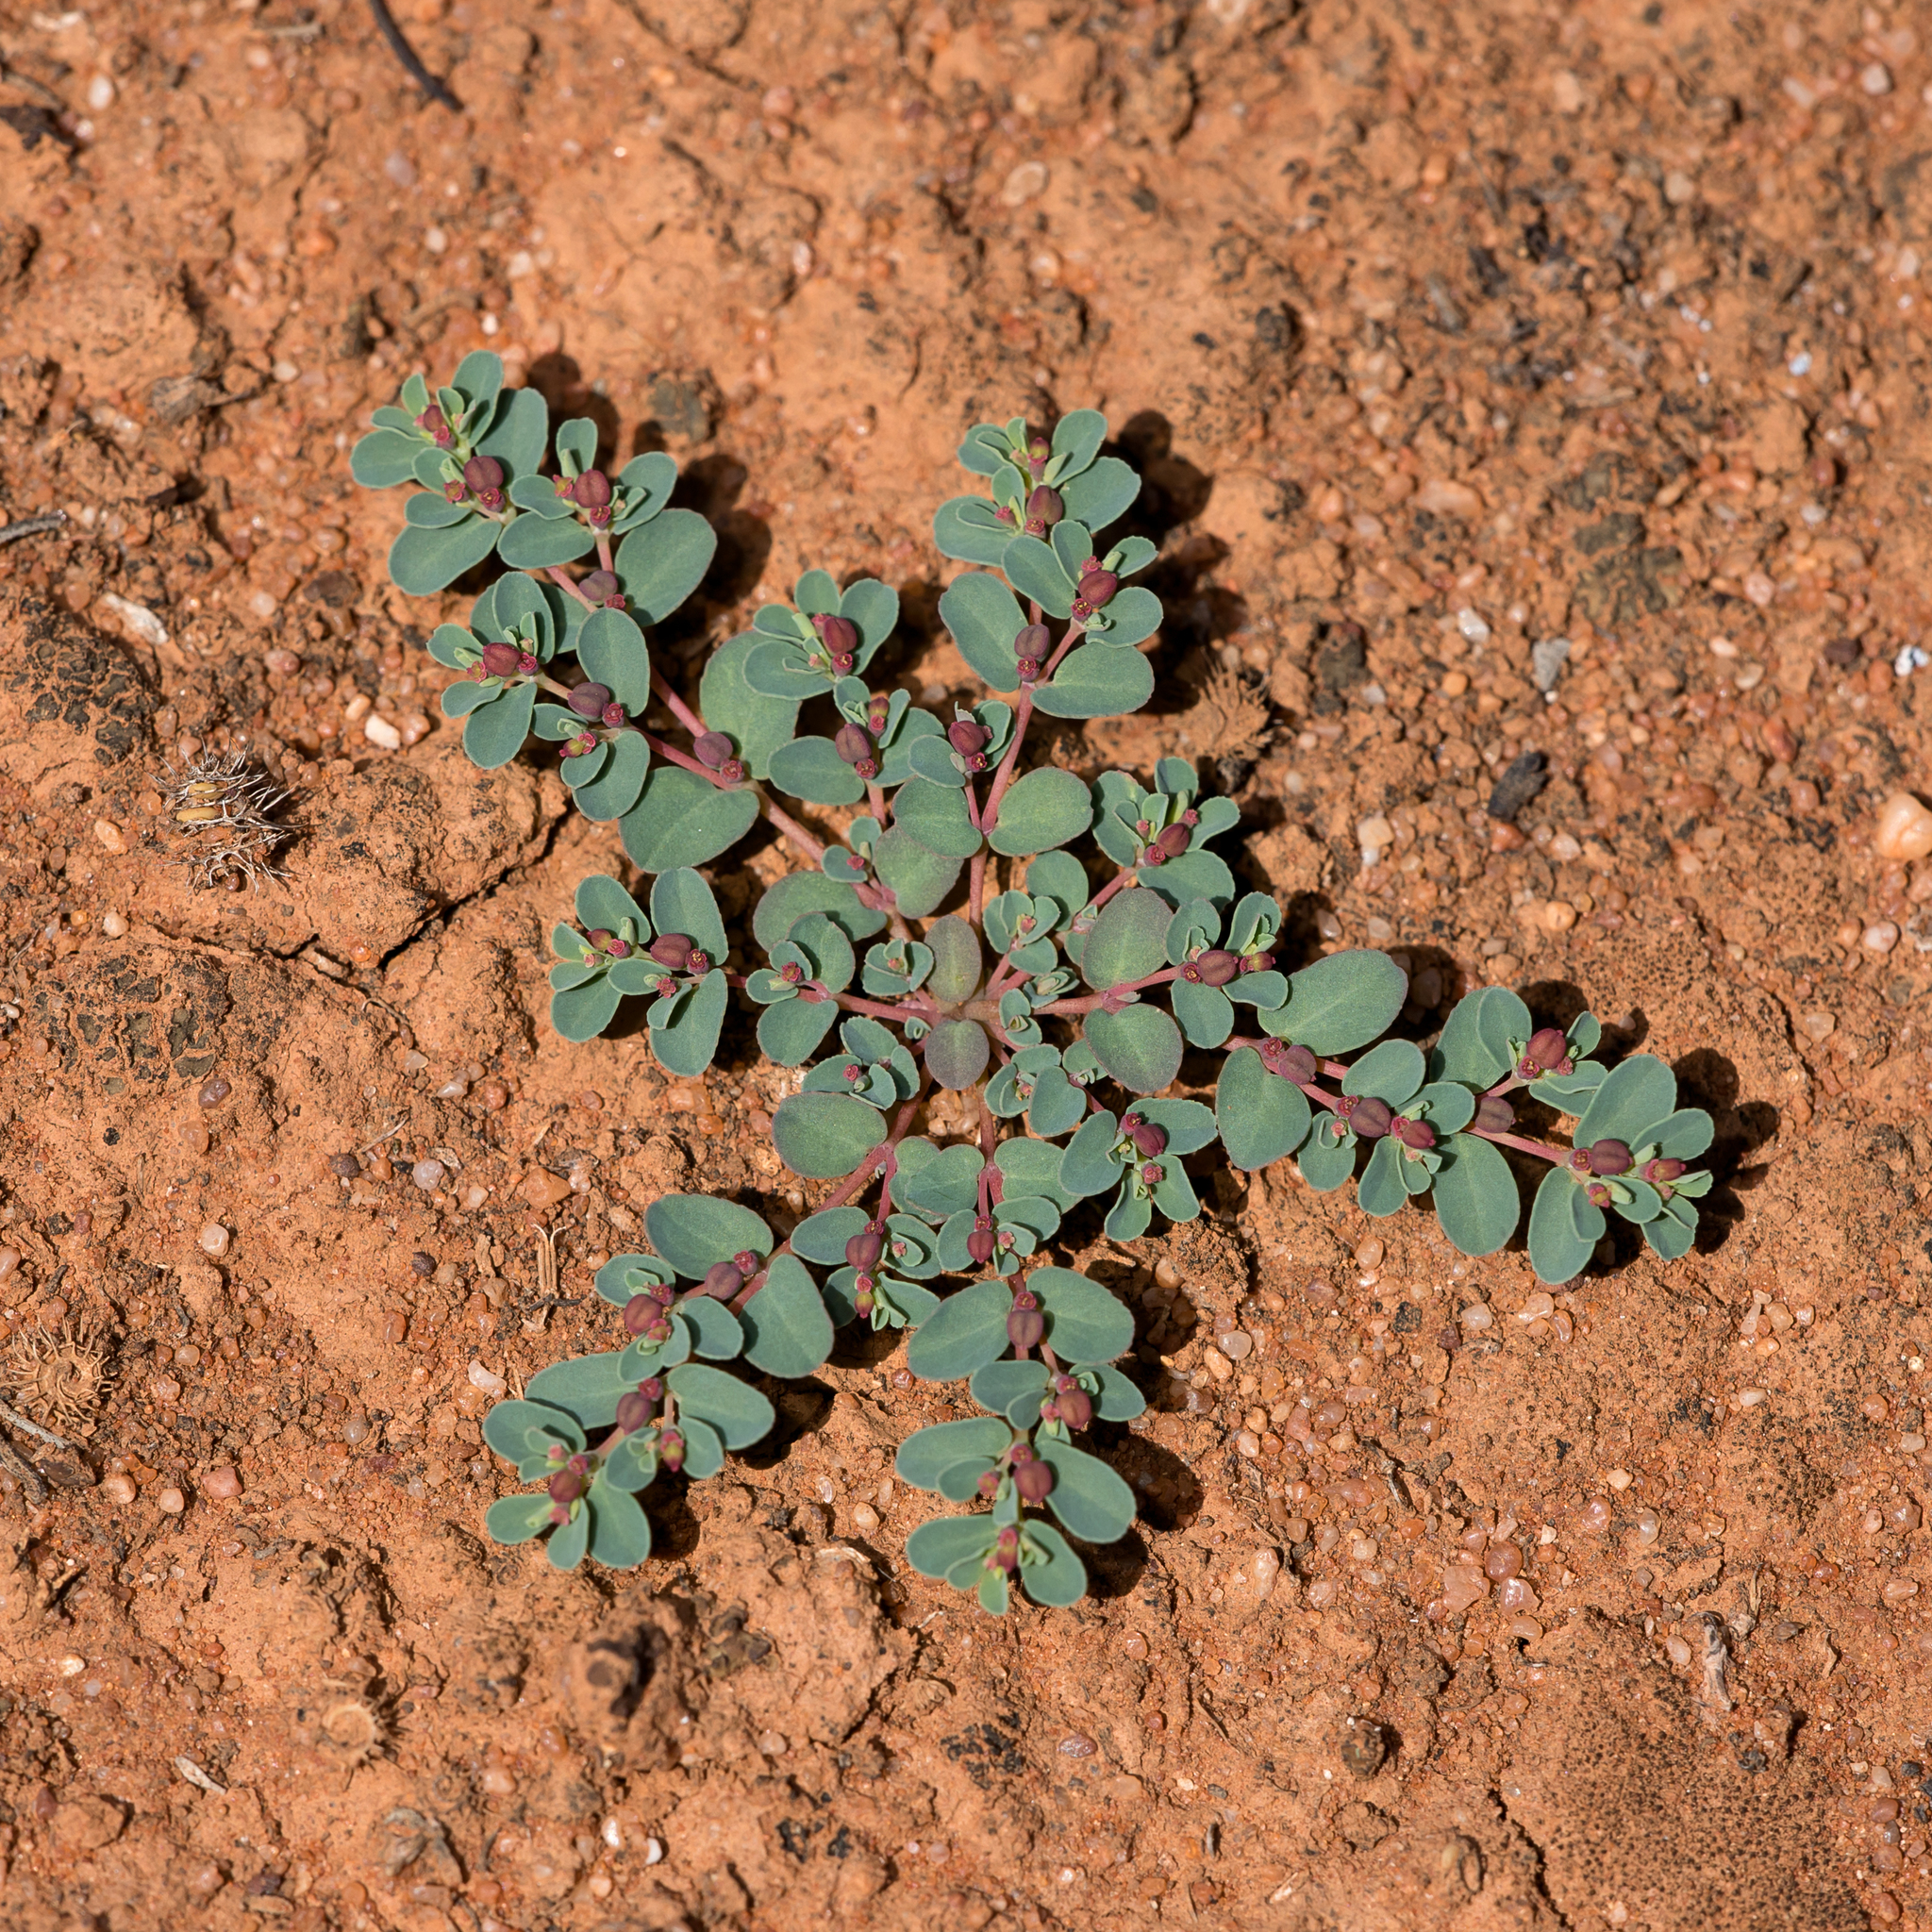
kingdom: Plantae
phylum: Tracheophyta
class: Magnoliopsida
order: Malpighiales
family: Euphorbiaceae
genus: Euphorbia
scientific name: Euphorbia drummondii
